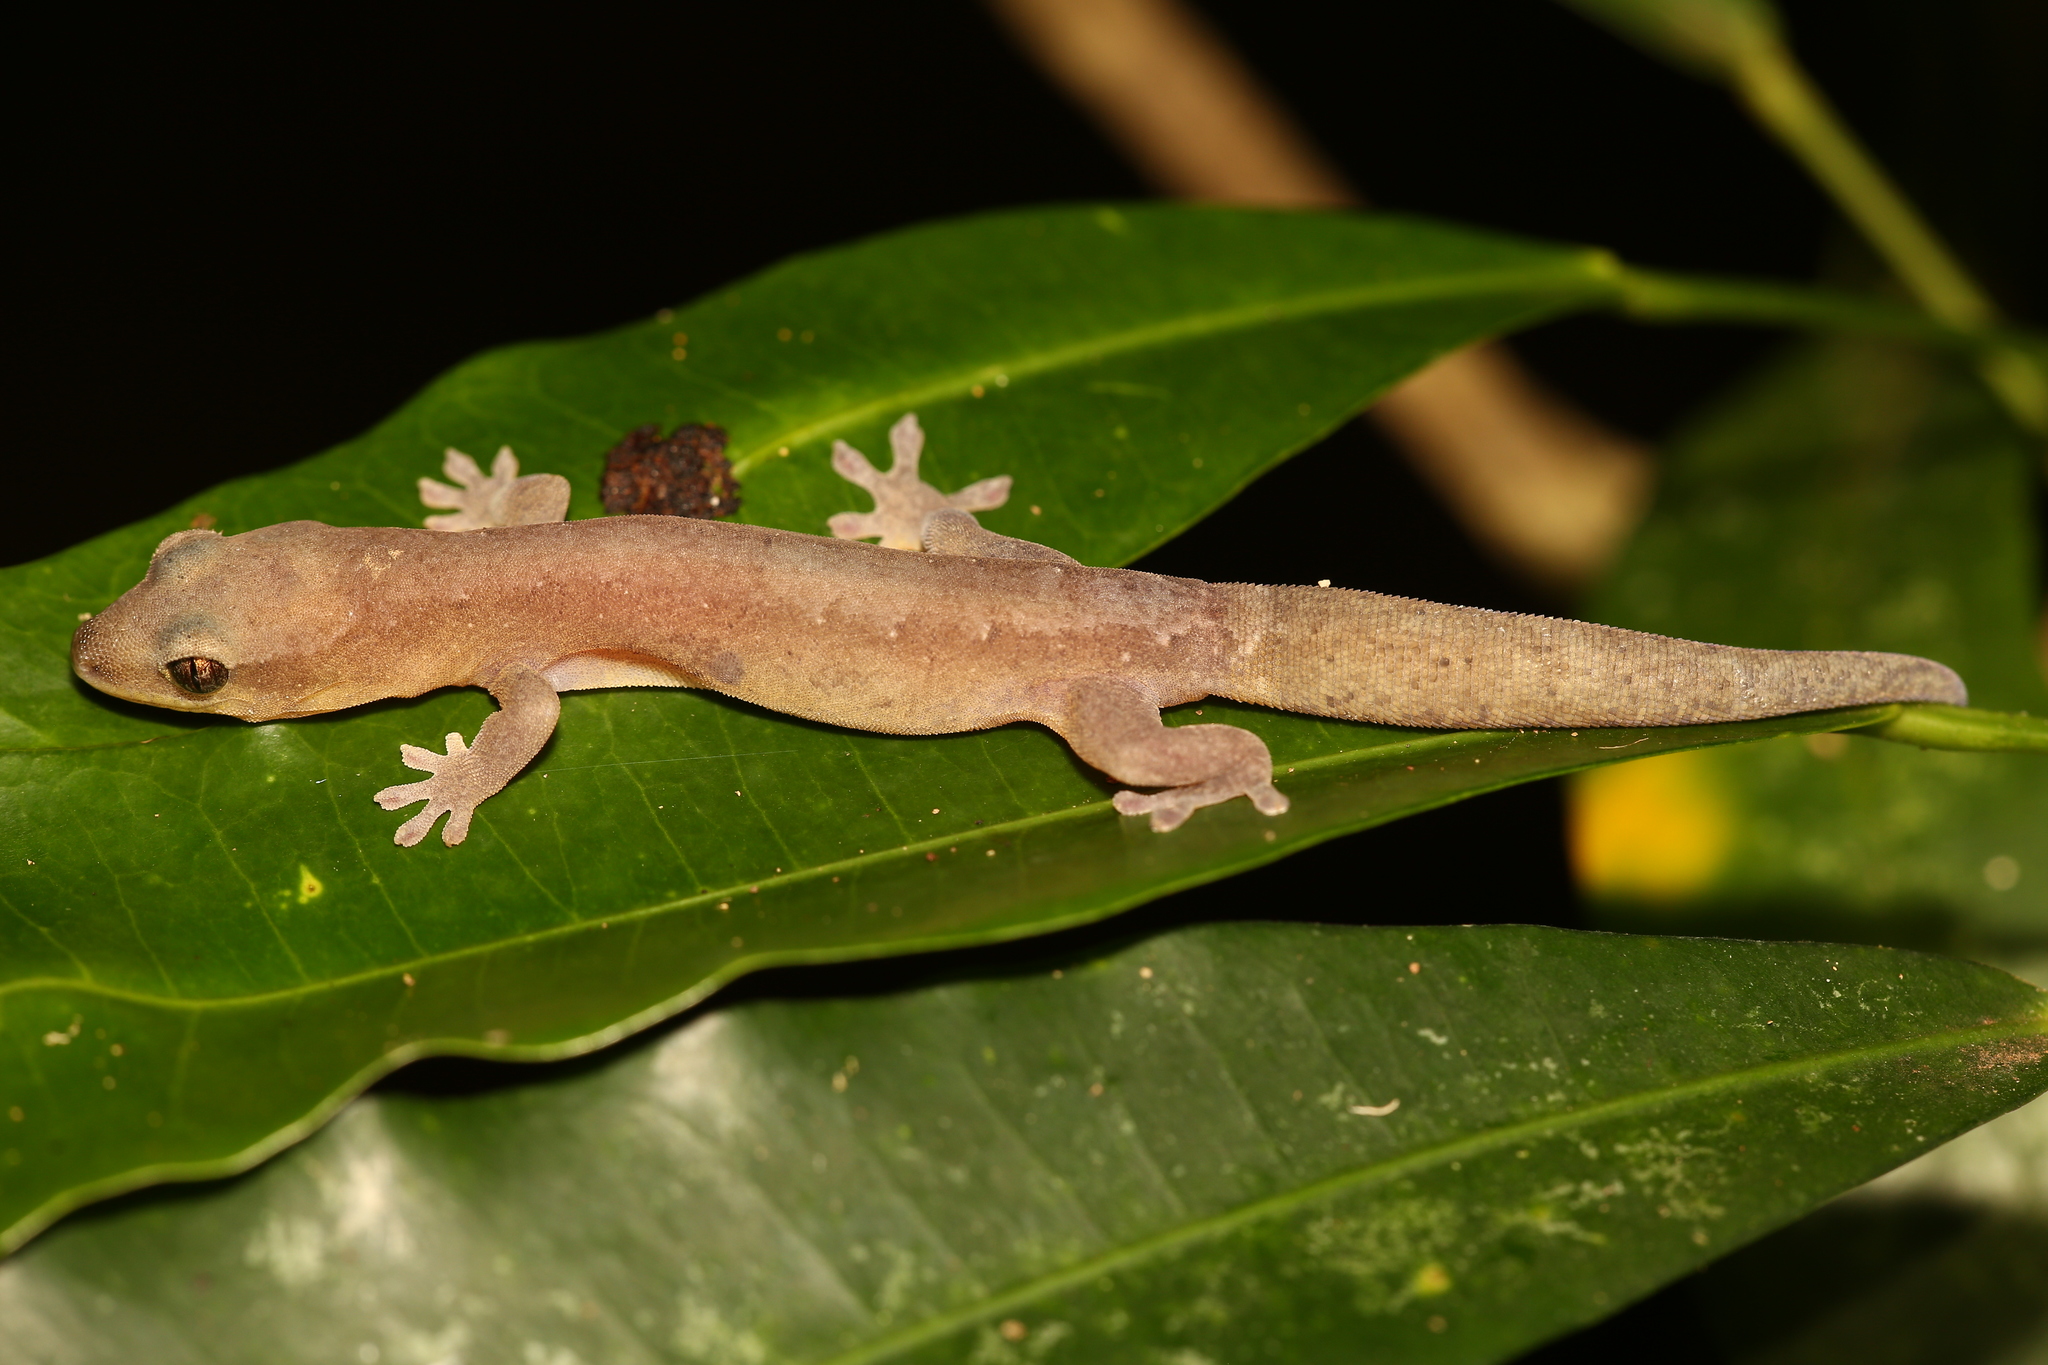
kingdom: Animalia
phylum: Chordata
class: Squamata
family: Diplodactylidae
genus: Dierogekko
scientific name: Dierogekko nehoueensis
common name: Striped gekko
